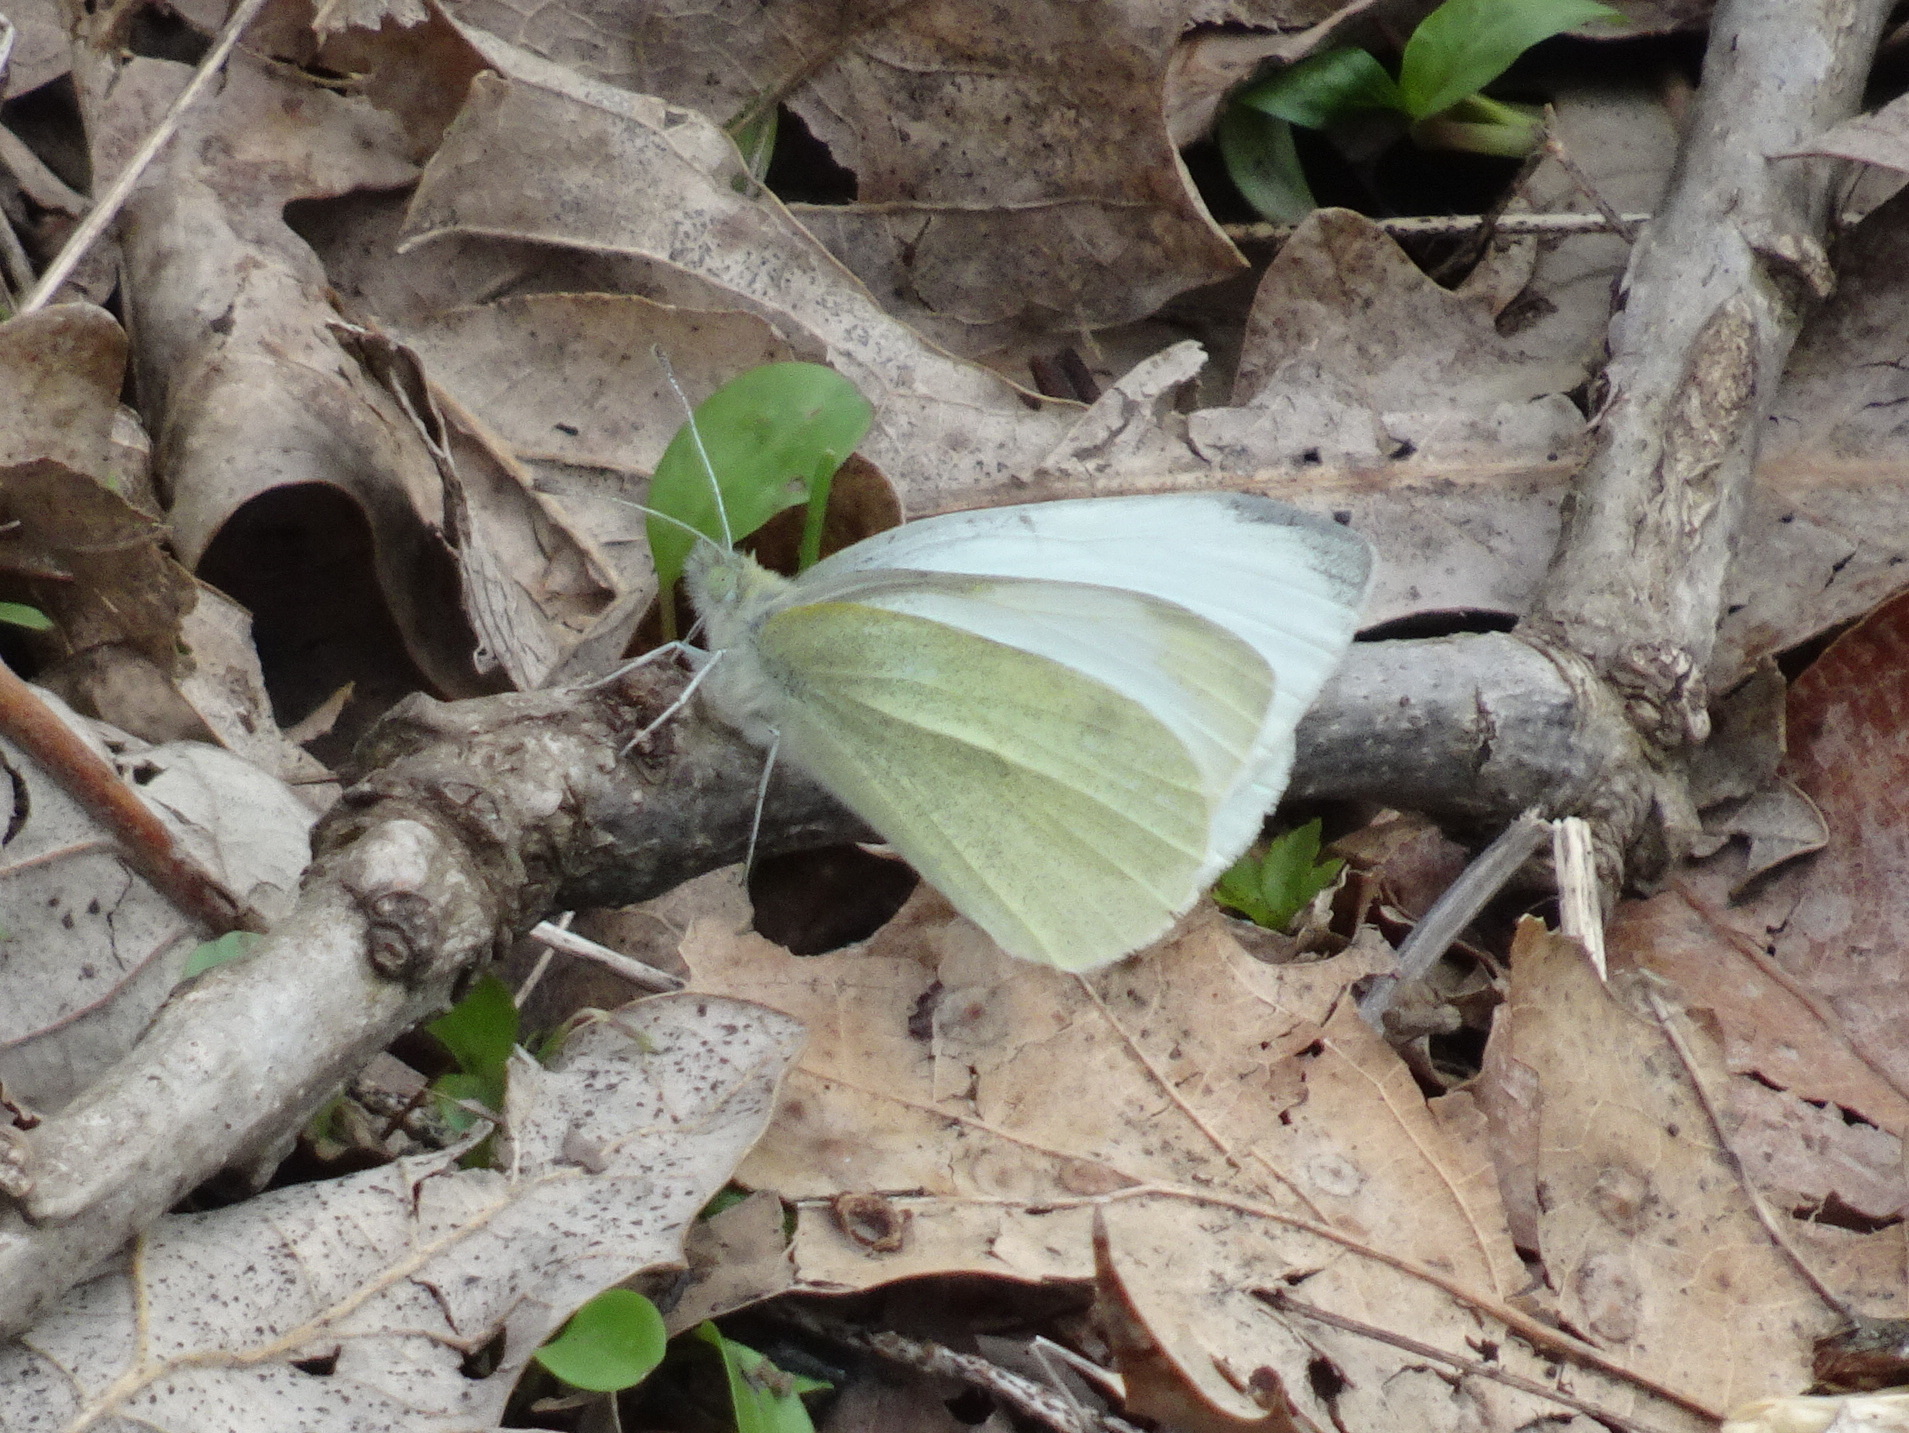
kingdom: Animalia
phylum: Arthropoda
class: Insecta
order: Lepidoptera
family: Pieridae
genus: Pieris
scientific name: Pieris rapae
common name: Small white
